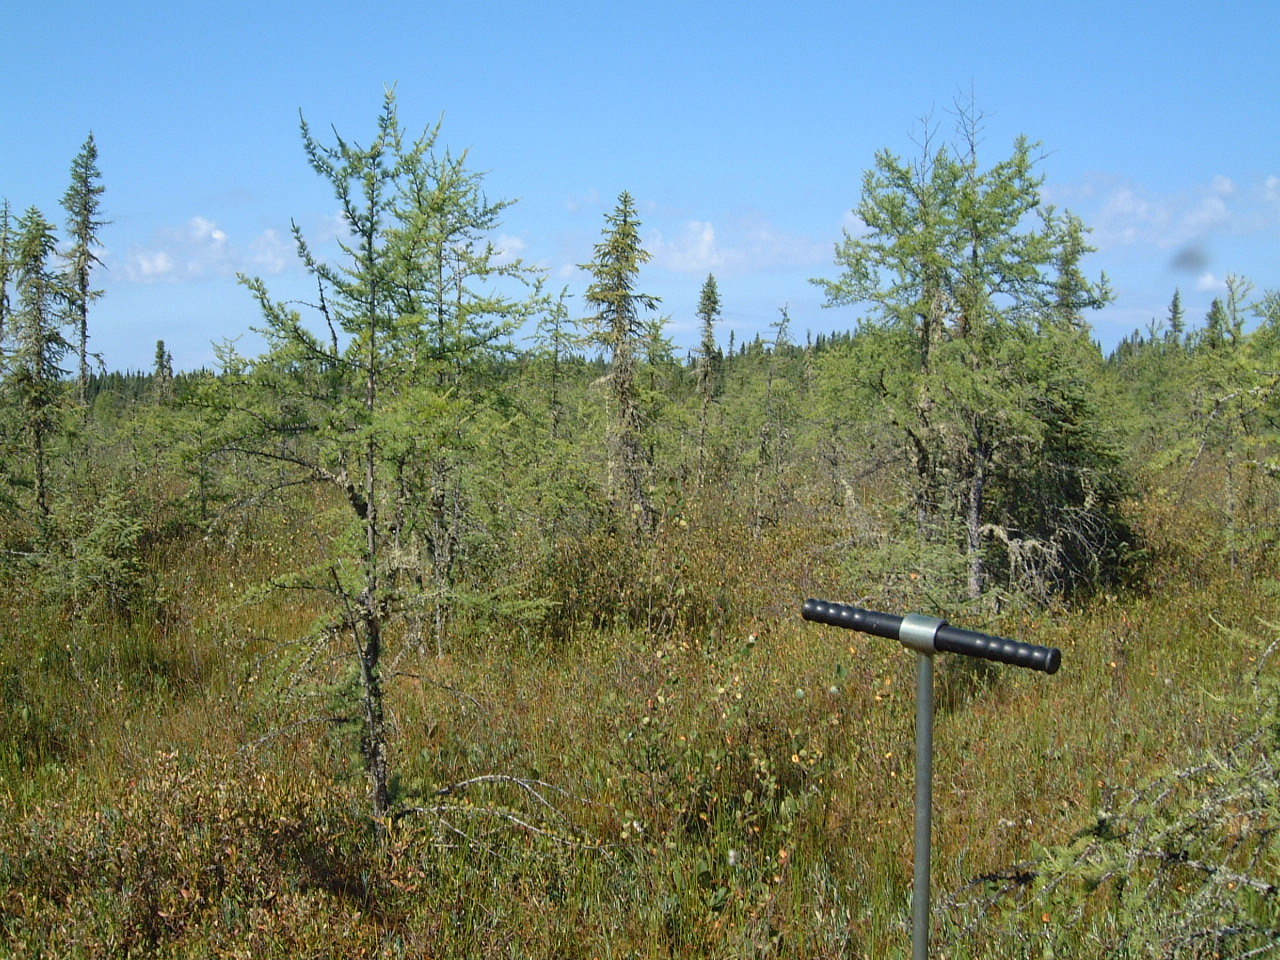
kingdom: Plantae
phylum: Tracheophyta
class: Pinopsida
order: Pinales
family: Pinaceae
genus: Larix
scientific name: Larix laricina
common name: American larch
